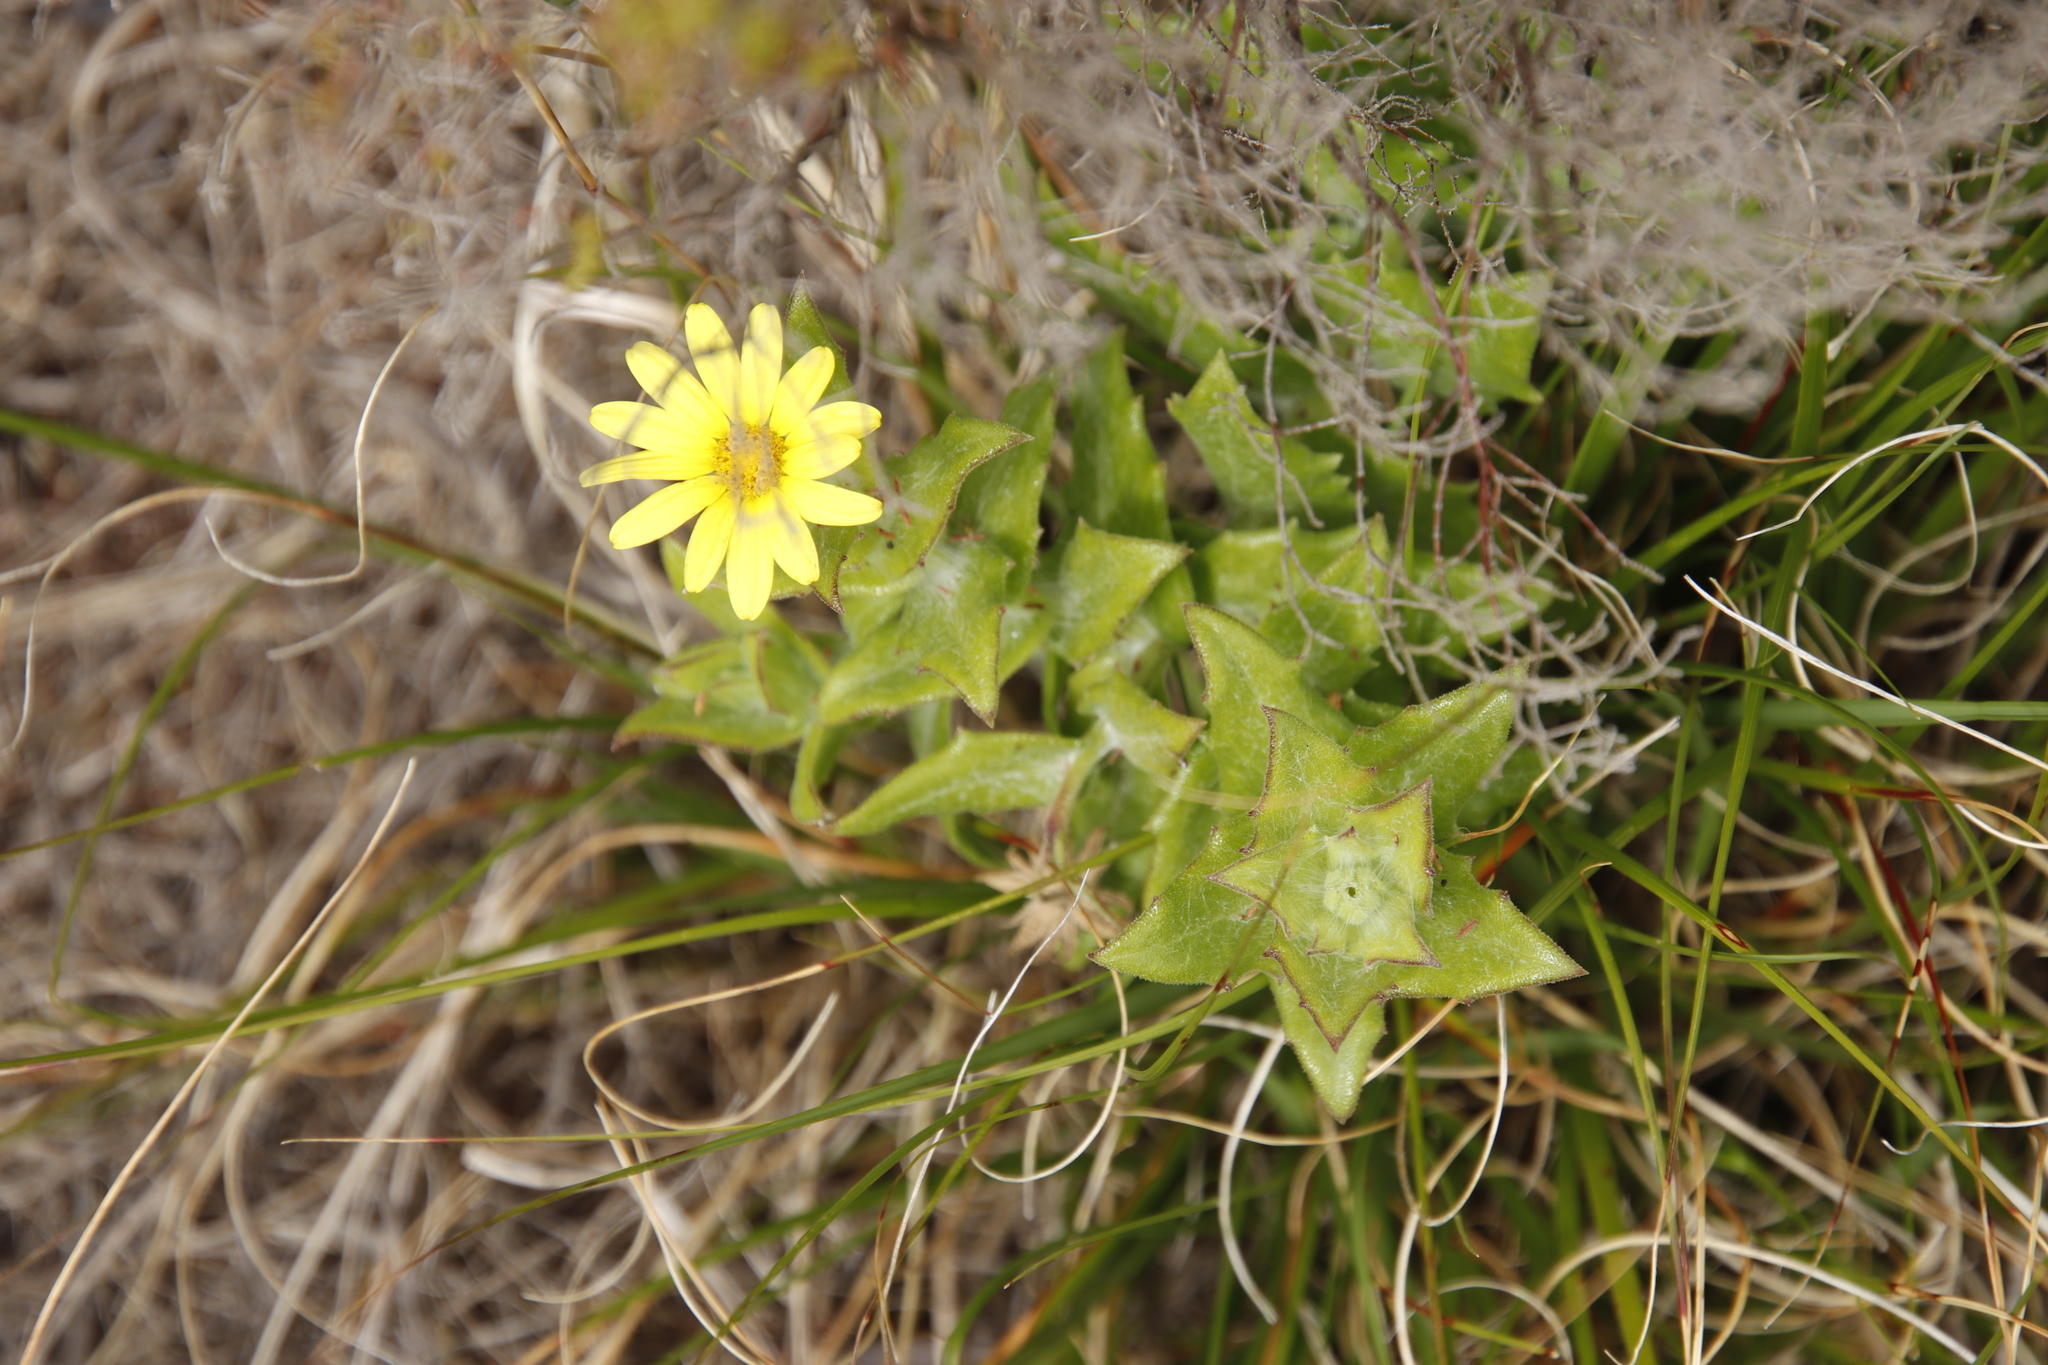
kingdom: Plantae
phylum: Tracheophyta
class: Magnoliopsida
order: Asterales
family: Asteraceae
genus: Osteospermum
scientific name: Osteospermum ilicifolium
